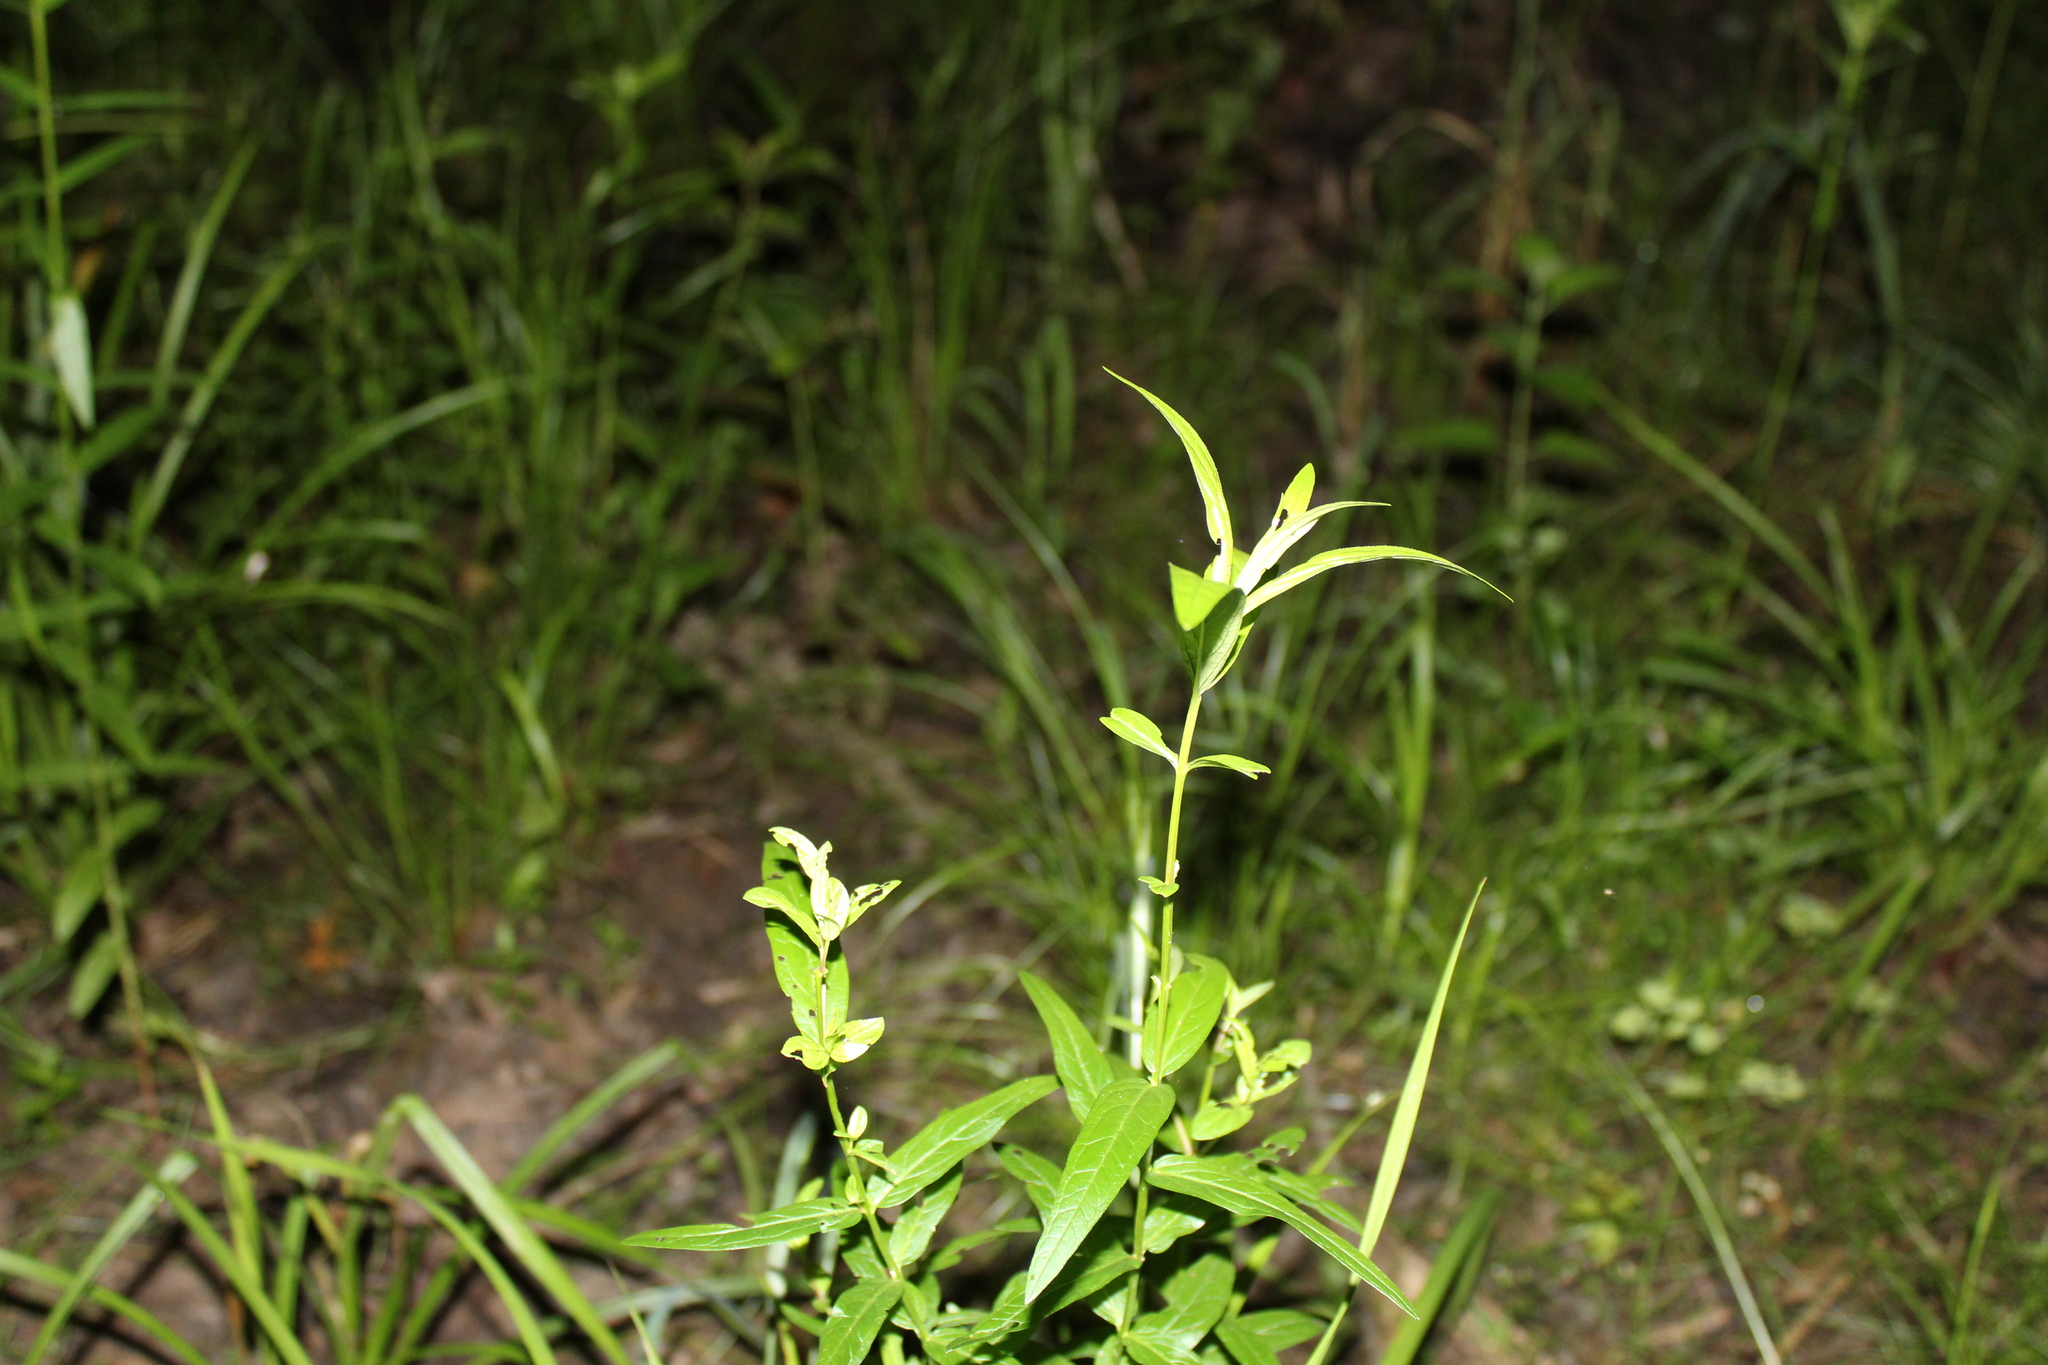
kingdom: Plantae
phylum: Tracheophyta
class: Magnoliopsida
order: Myrtales
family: Lythraceae
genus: Lythrum
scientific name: Lythrum salicaria
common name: Purple loosestrife
